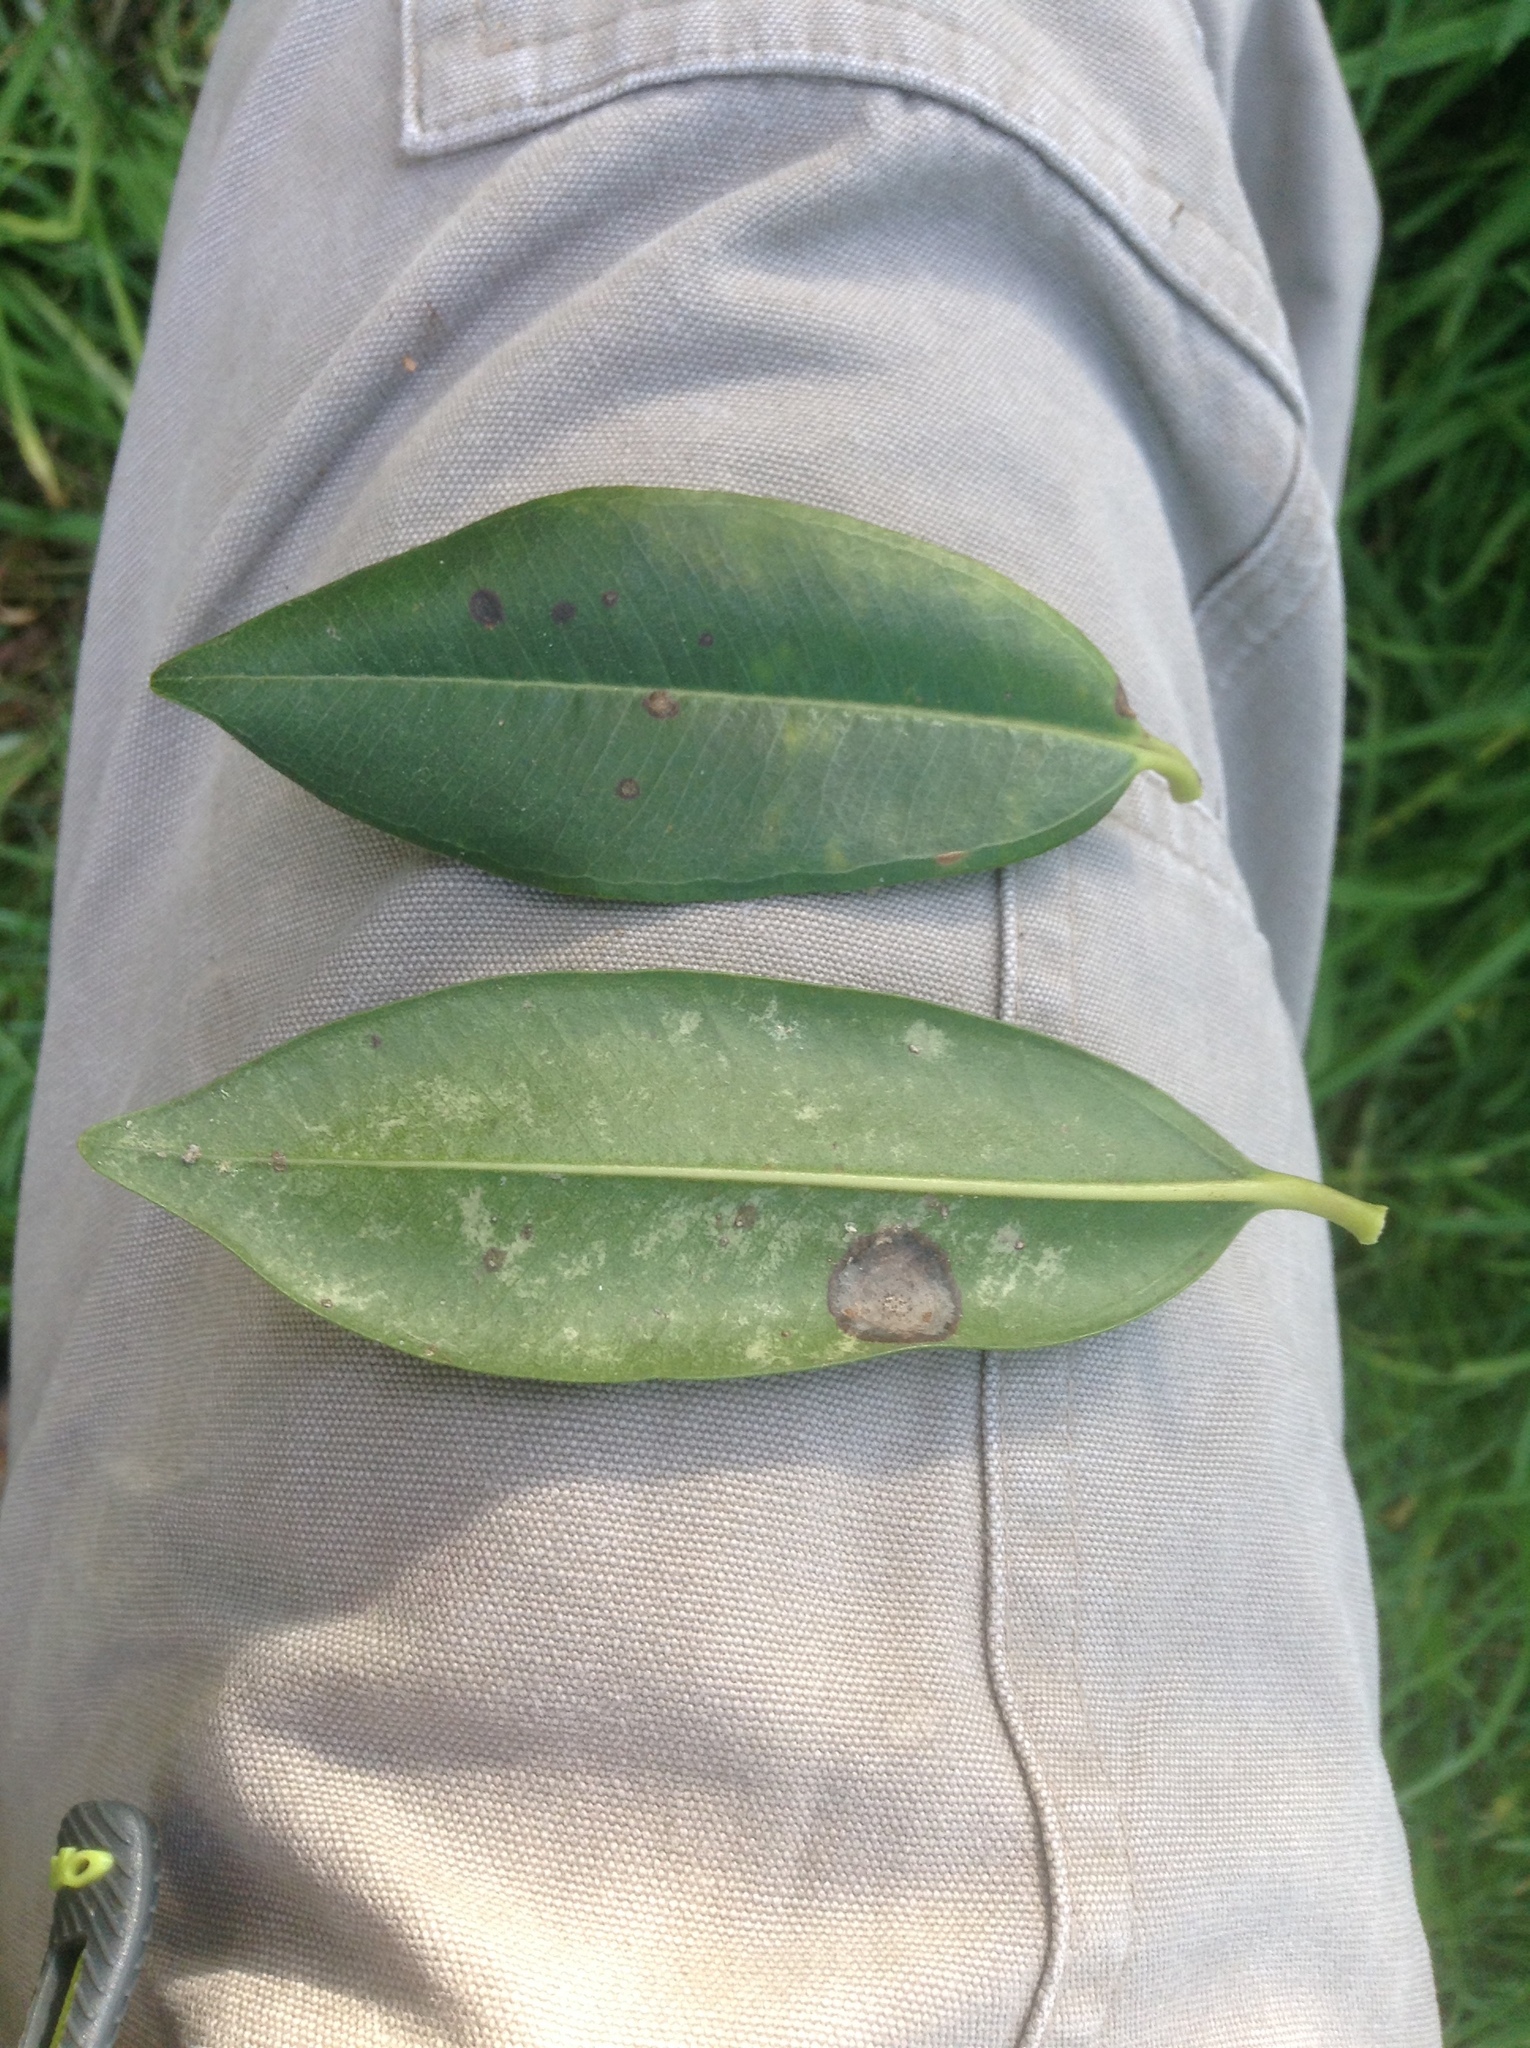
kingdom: Plantae
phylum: Tracheophyta
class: Magnoliopsida
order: Myrtales
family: Myrtaceae
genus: Metrosideros
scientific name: Metrosideros excelsa
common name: New zealand christmastree
